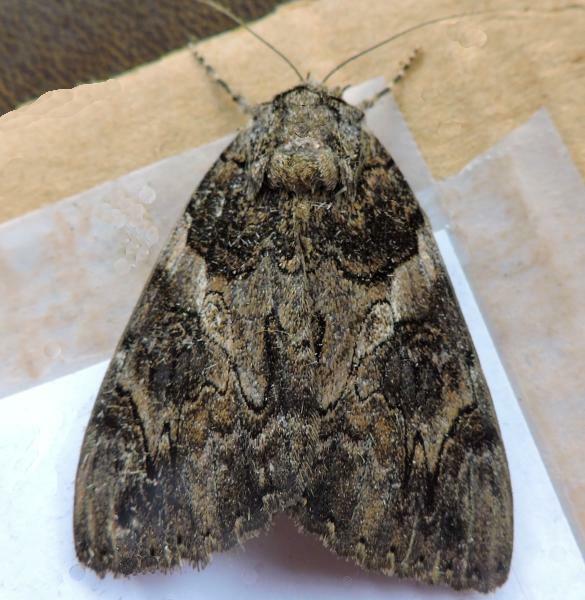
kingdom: Animalia
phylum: Arthropoda
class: Insecta
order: Lepidoptera
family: Erebidae
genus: Catocala
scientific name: Catocala piatrix
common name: The penitent underwing
